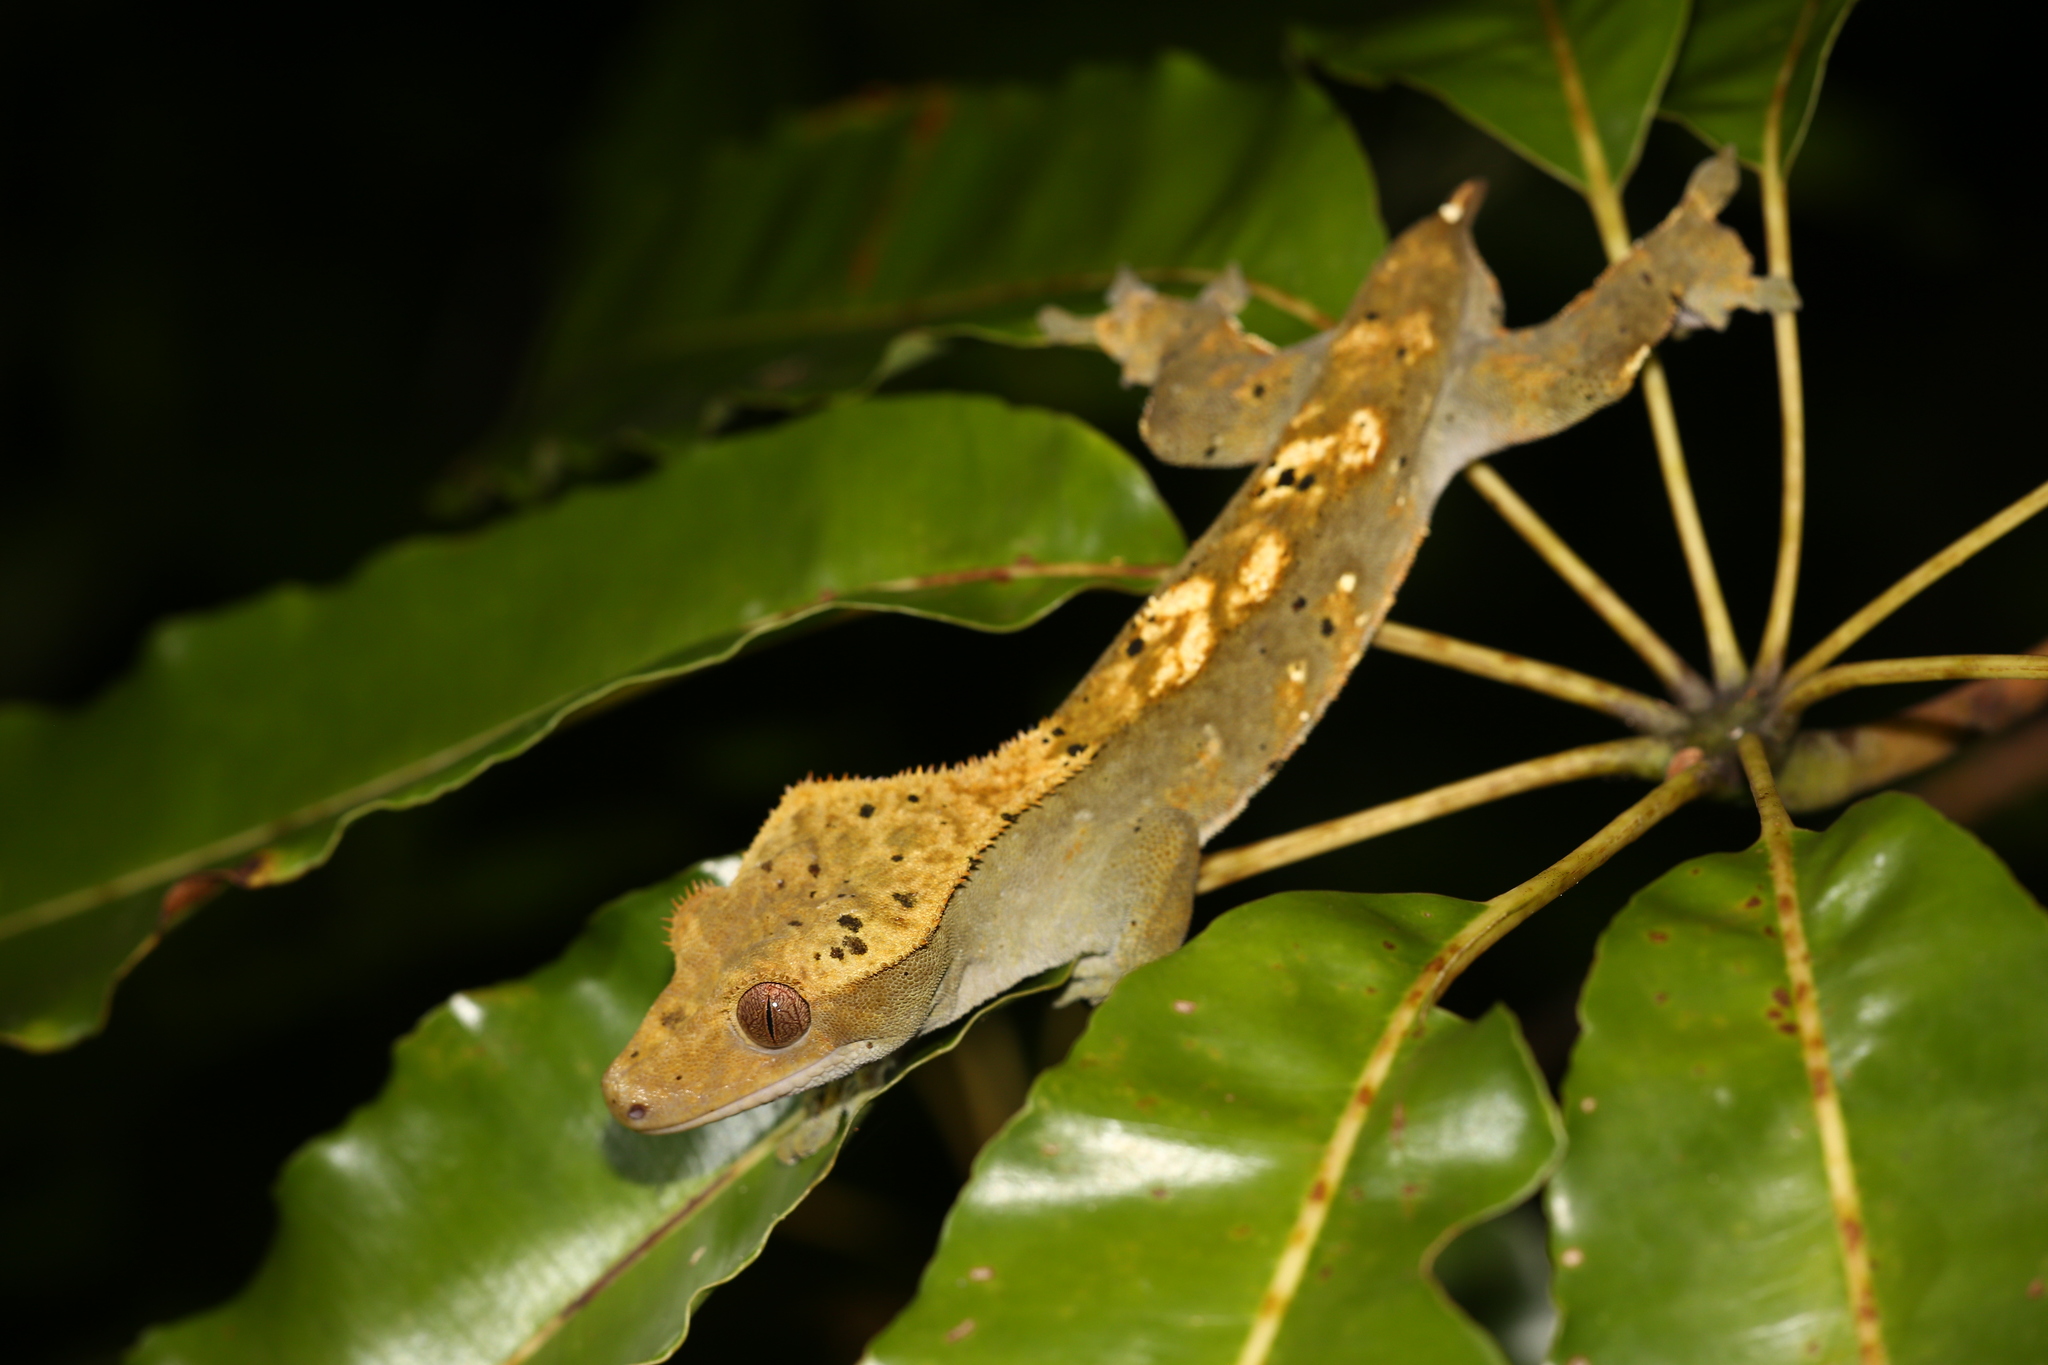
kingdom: Animalia
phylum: Chordata
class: Squamata
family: Diplodactylidae
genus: Correlophus
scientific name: Correlophus ciliatus
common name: Crested gecko
